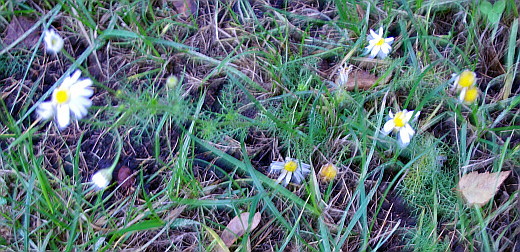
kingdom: Plantae
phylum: Tracheophyta
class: Magnoliopsida
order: Asterales
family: Asteraceae
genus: Tripleurospermum
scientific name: Tripleurospermum inodorum
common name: Scentless mayweed
